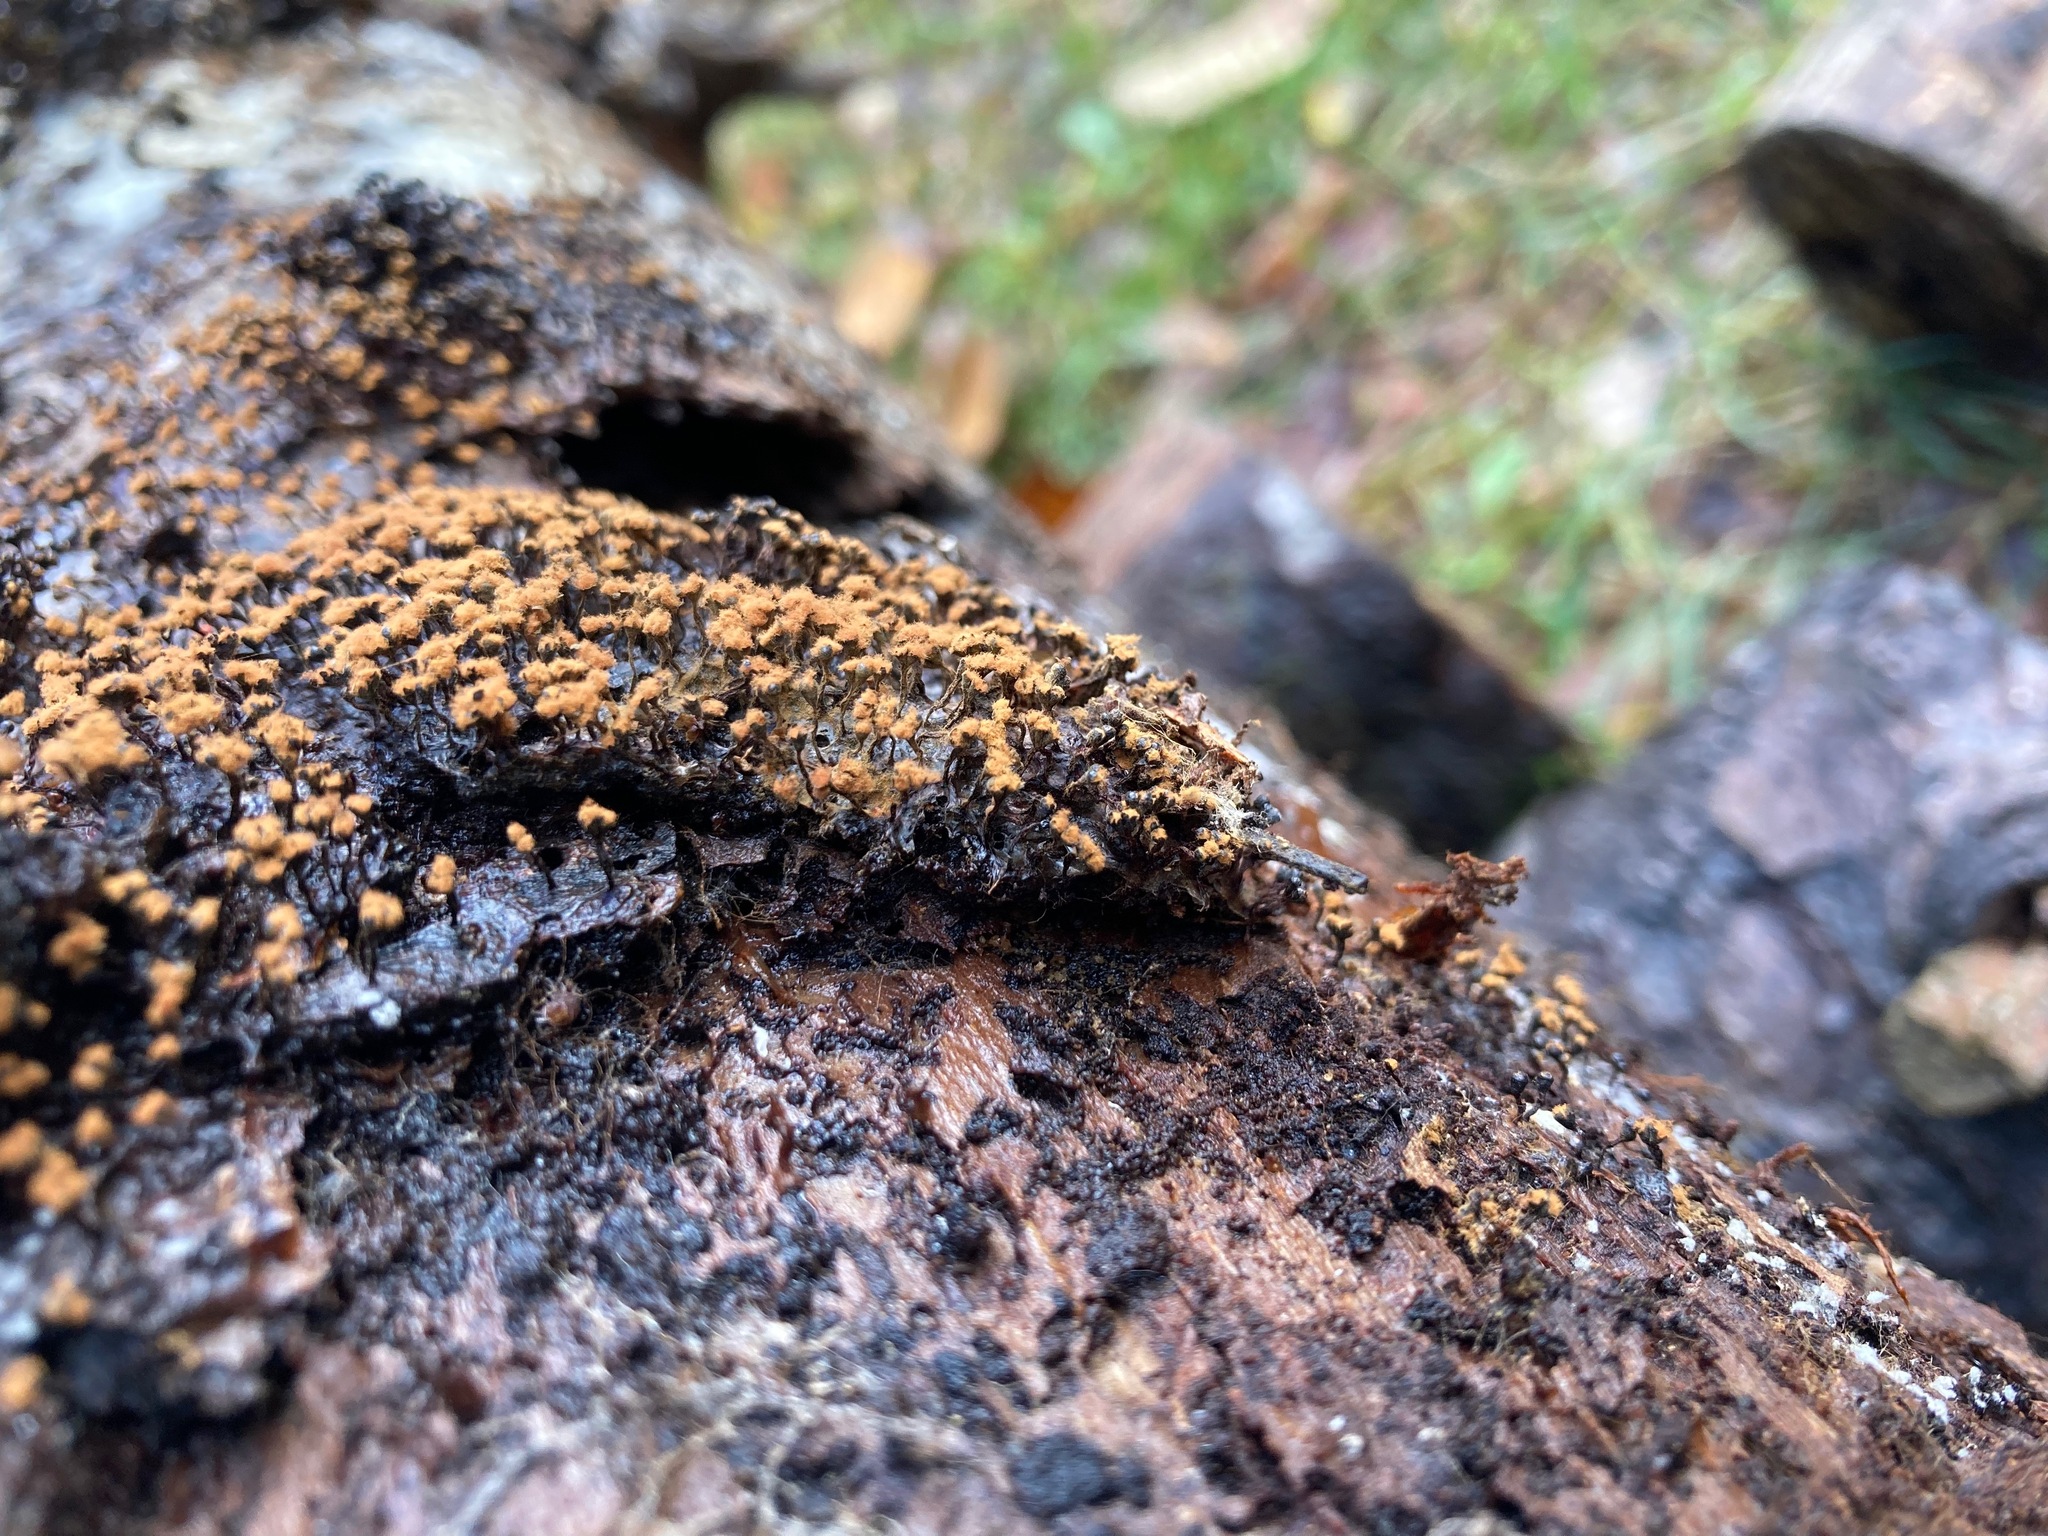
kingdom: Protozoa
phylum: Mycetozoa
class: Myxomycetes
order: Trichiales
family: Trichiaceae
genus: Metatrichia
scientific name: Metatrichia floriformis
